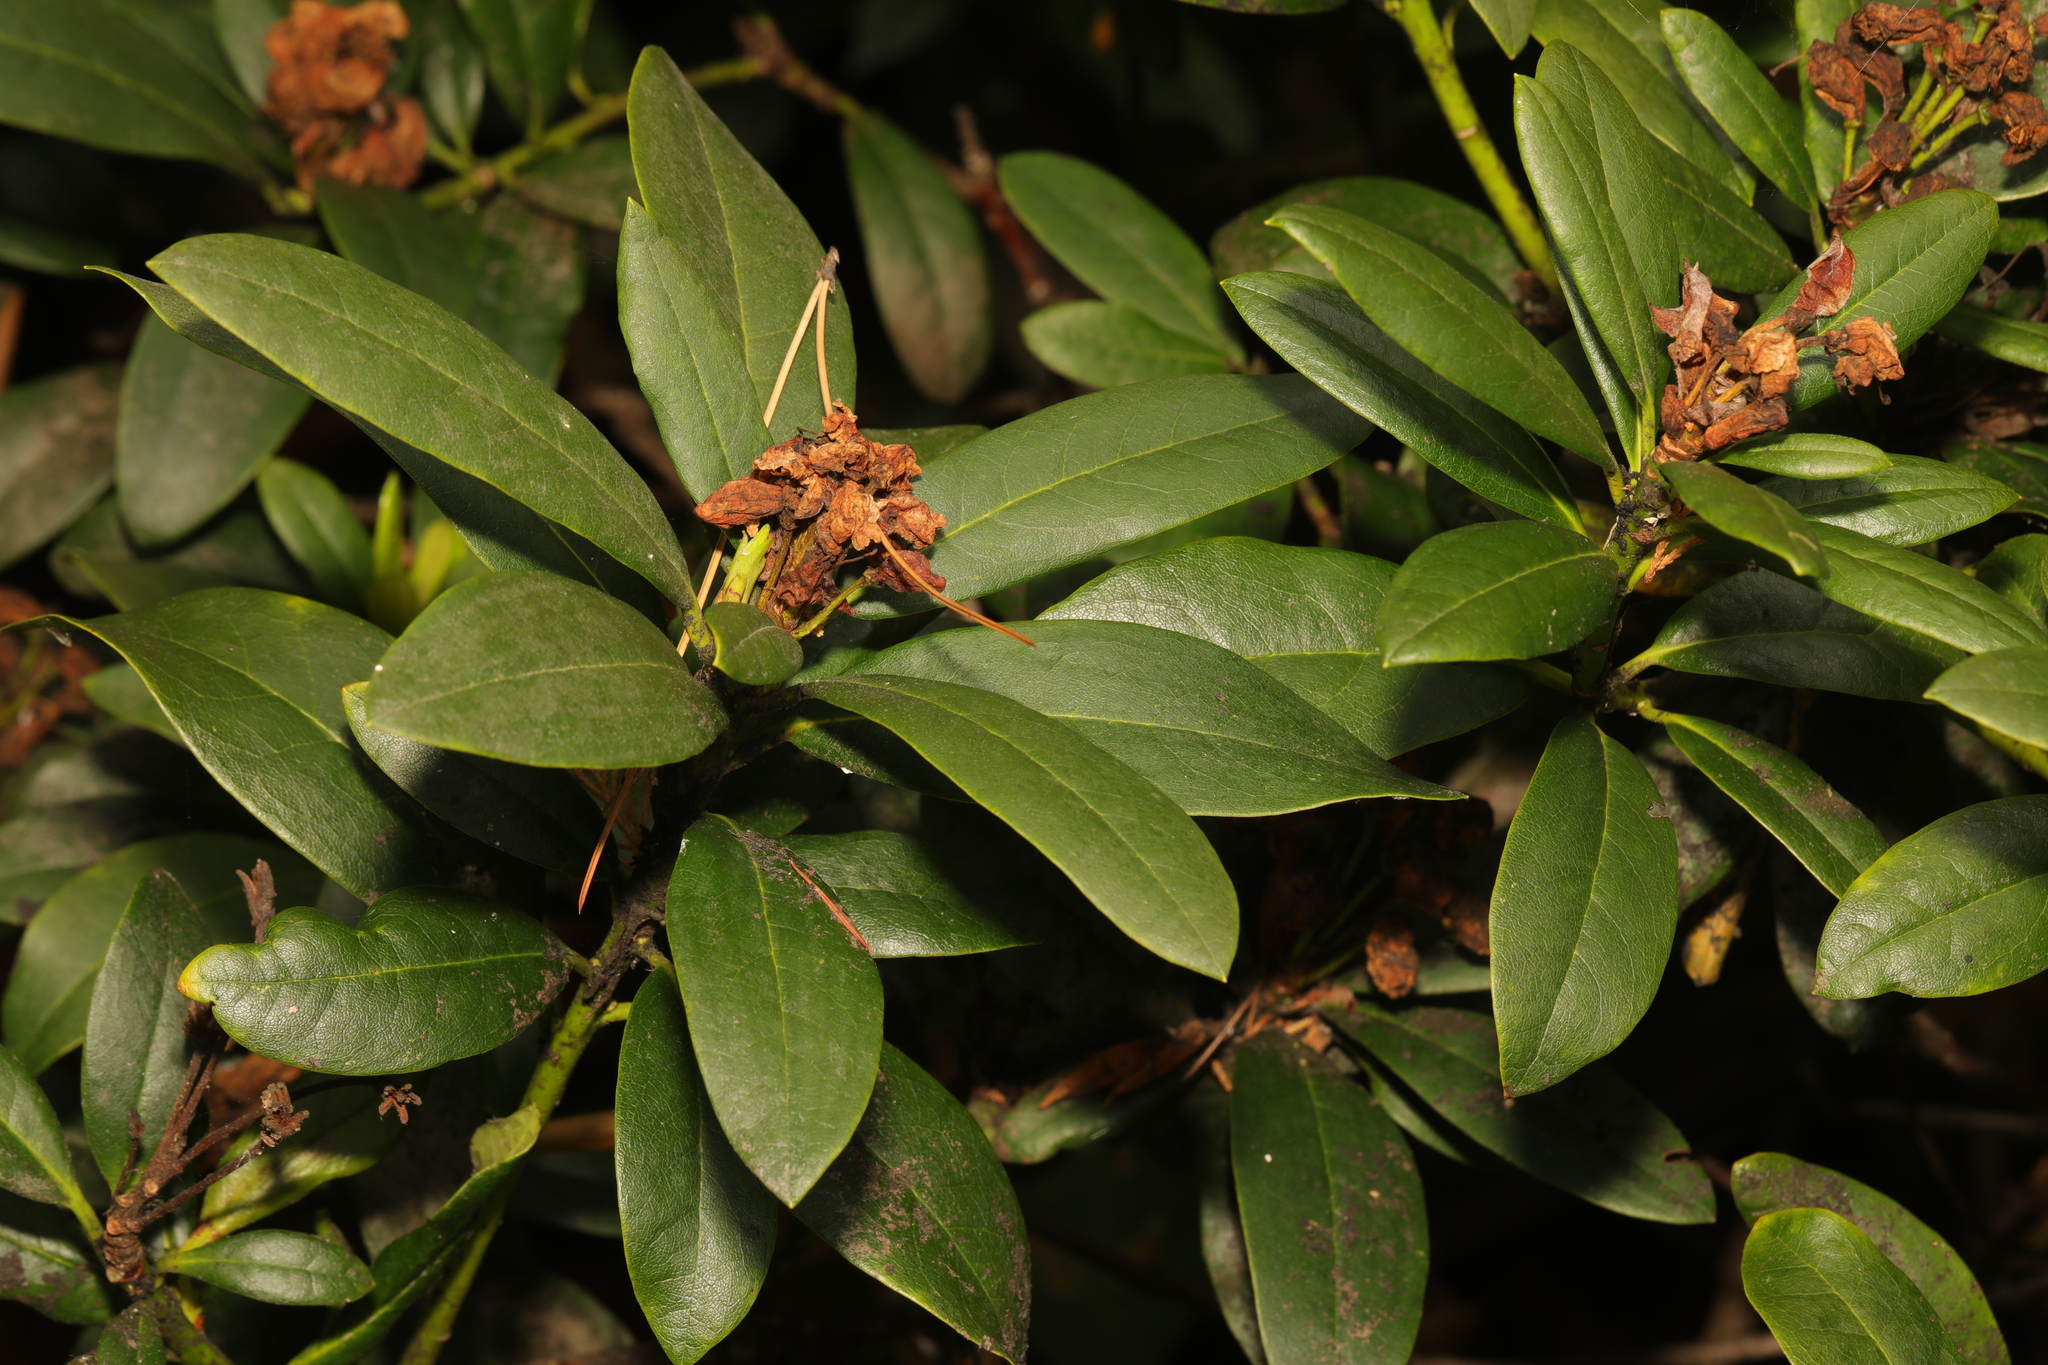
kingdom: Plantae
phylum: Tracheophyta
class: Magnoliopsida
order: Ericales
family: Ericaceae
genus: Rhododendron
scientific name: Rhododendron ponticum
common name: Rhododendron
